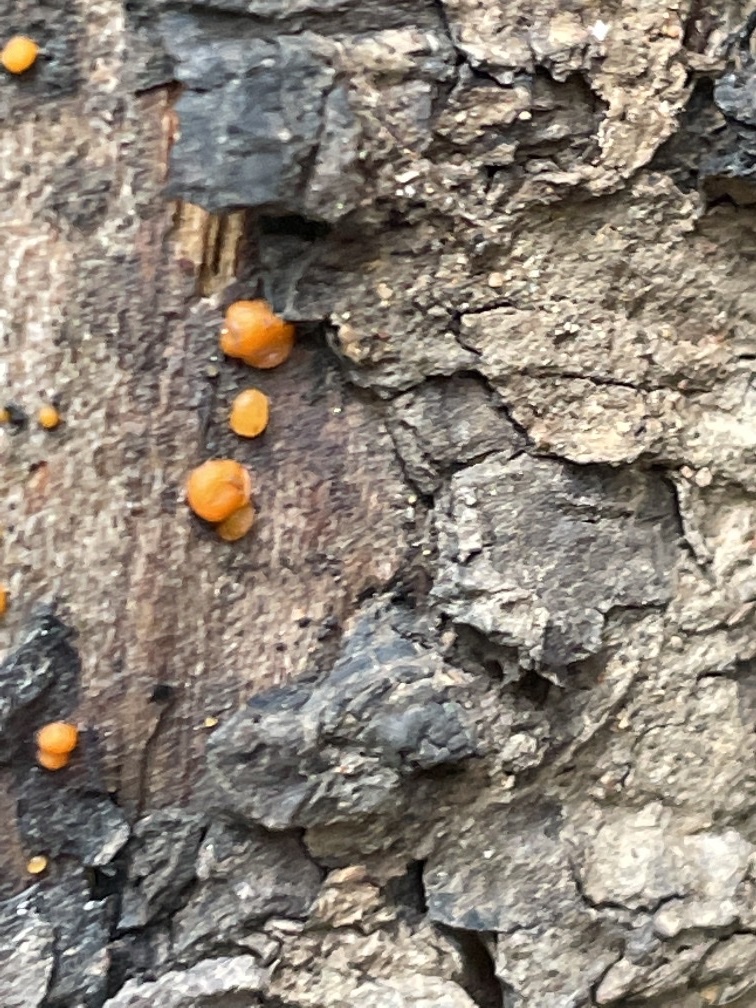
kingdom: Fungi
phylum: Basidiomycota
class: Dacrymycetes
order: Dacrymycetales
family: Dacrymycetaceae
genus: Dacrymyces
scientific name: Dacrymyces stillatus
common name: Common jelly spot
